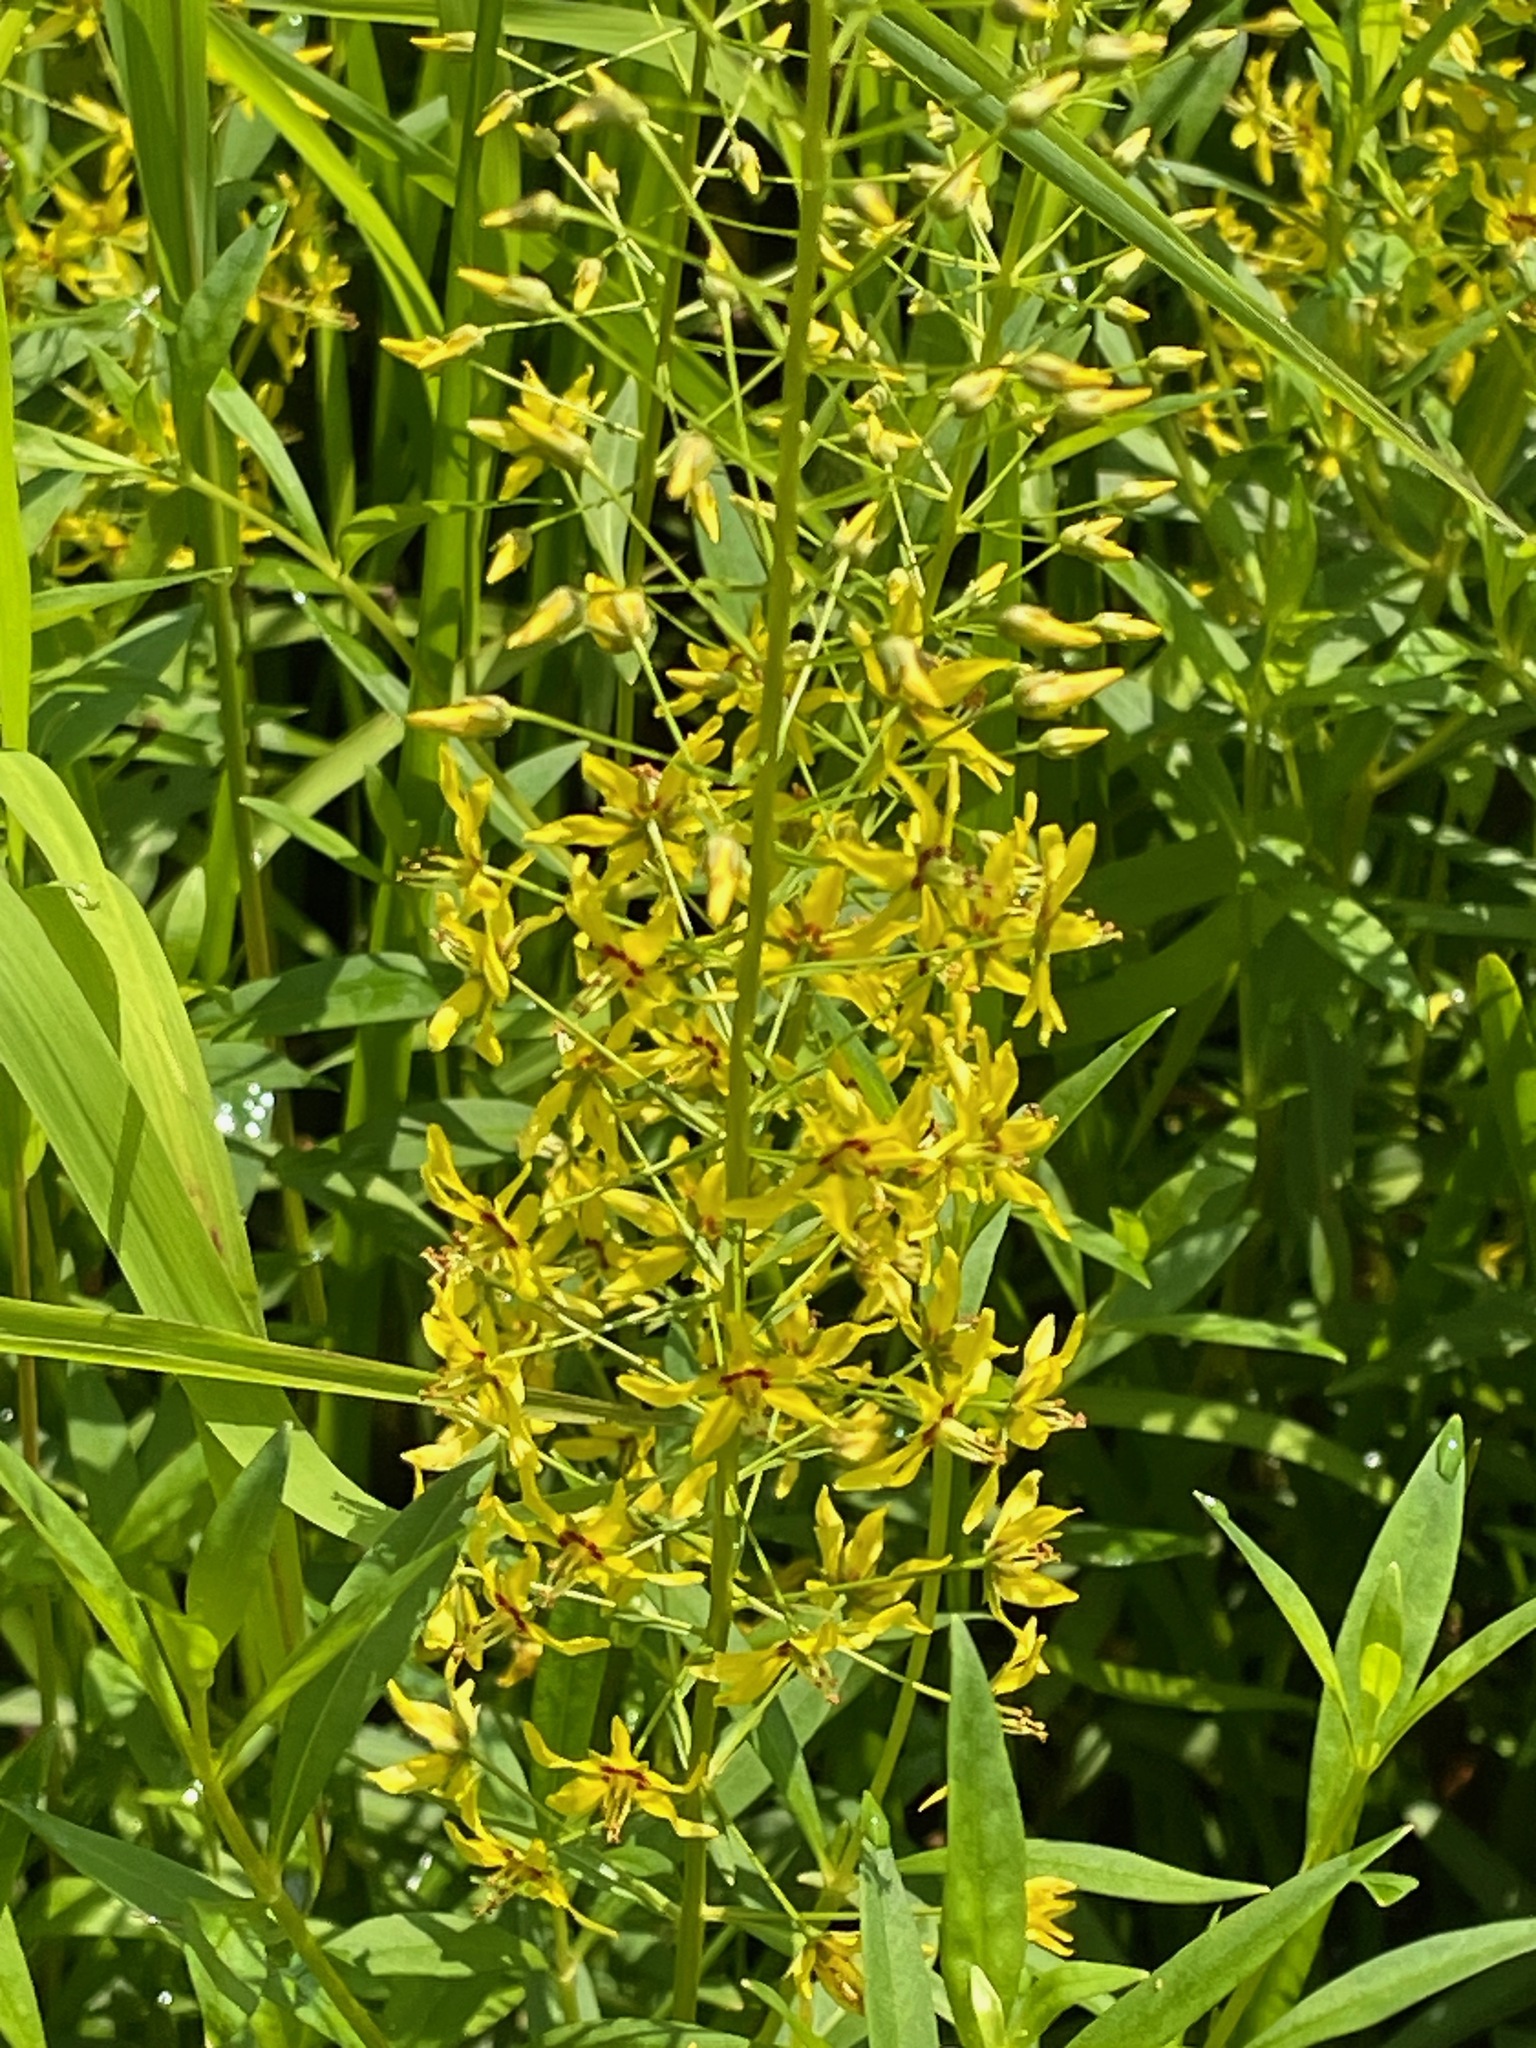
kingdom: Plantae
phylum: Tracheophyta
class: Magnoliopsida
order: Ericales
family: Primulaceae
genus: Lysimachia
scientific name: Lysimachia terrestris
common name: Lake loosestrife
